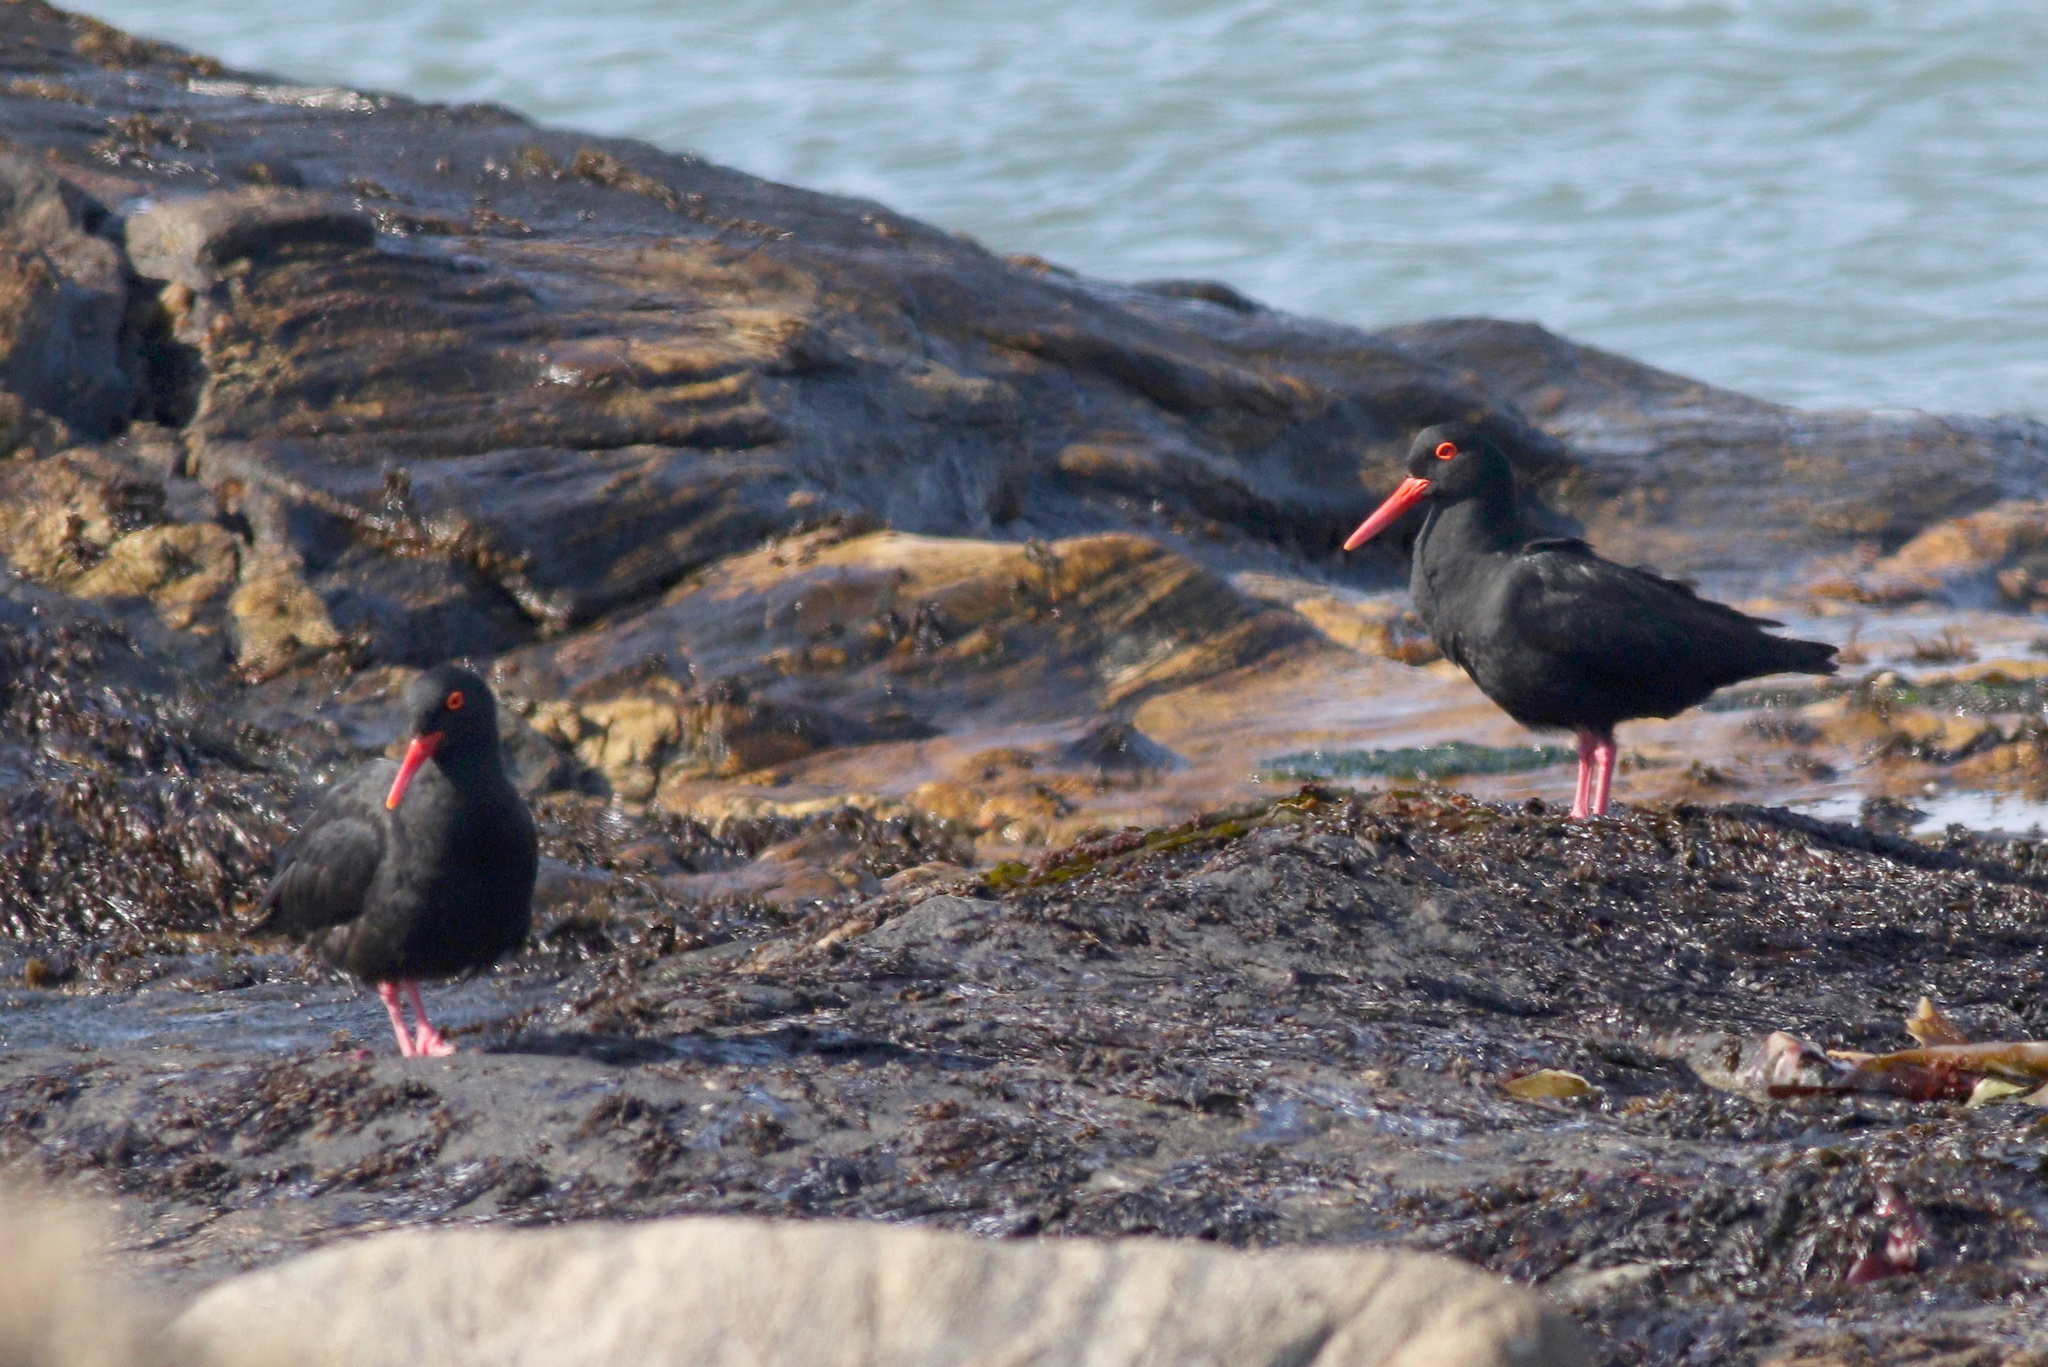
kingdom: Animalia
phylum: Chordata
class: Aves
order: Charadriiformes
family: Haematopodidae
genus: Haematopus
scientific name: Haematopus moquini
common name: African oystercatcher
